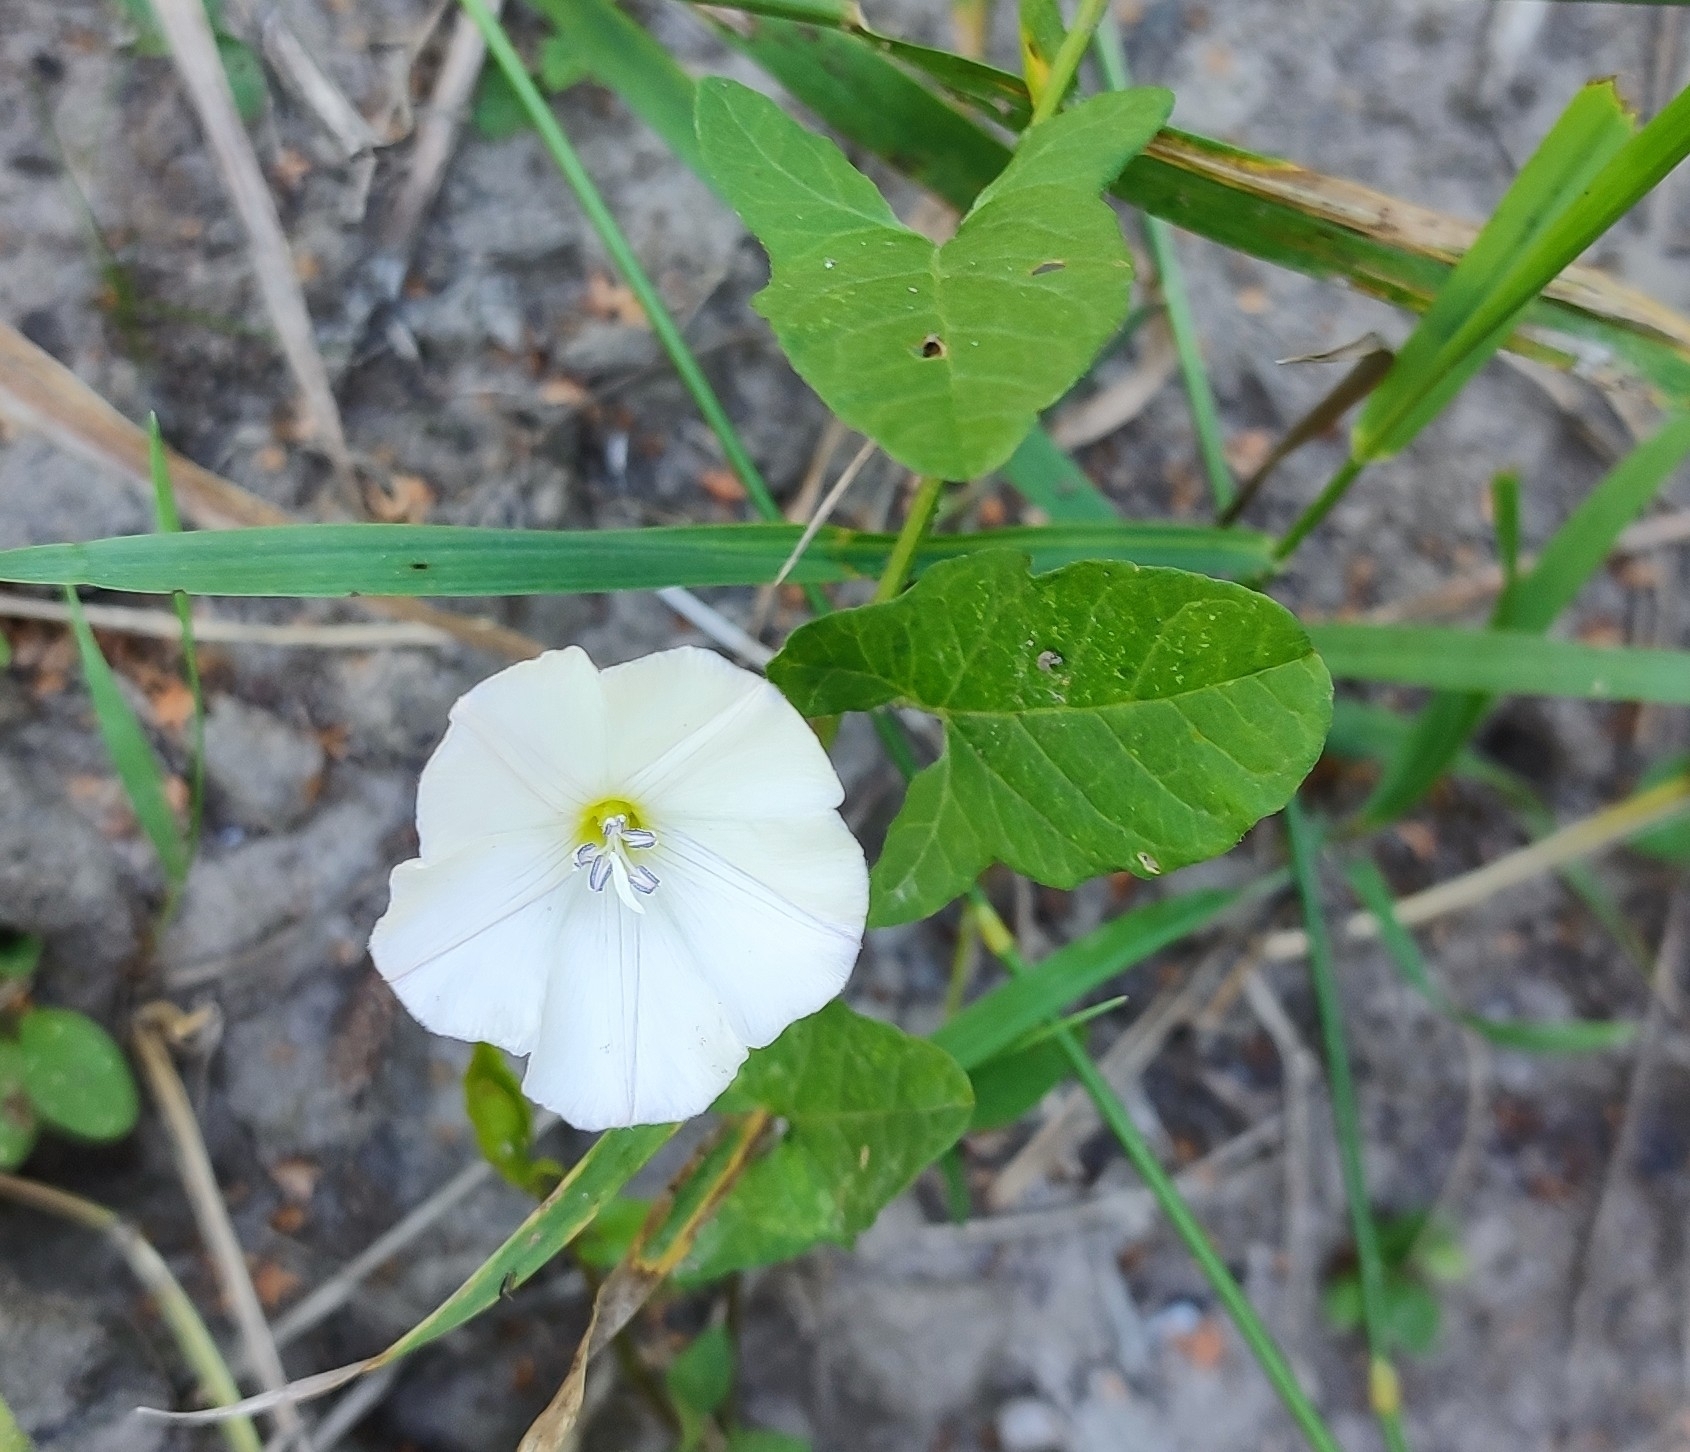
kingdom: Plantae
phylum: Tracheophyta
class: Magnoliopsida
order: Solanales
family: Convolvulaceae
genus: Convolvulus
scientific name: Convolvulus arvensis
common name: Field bindweed
